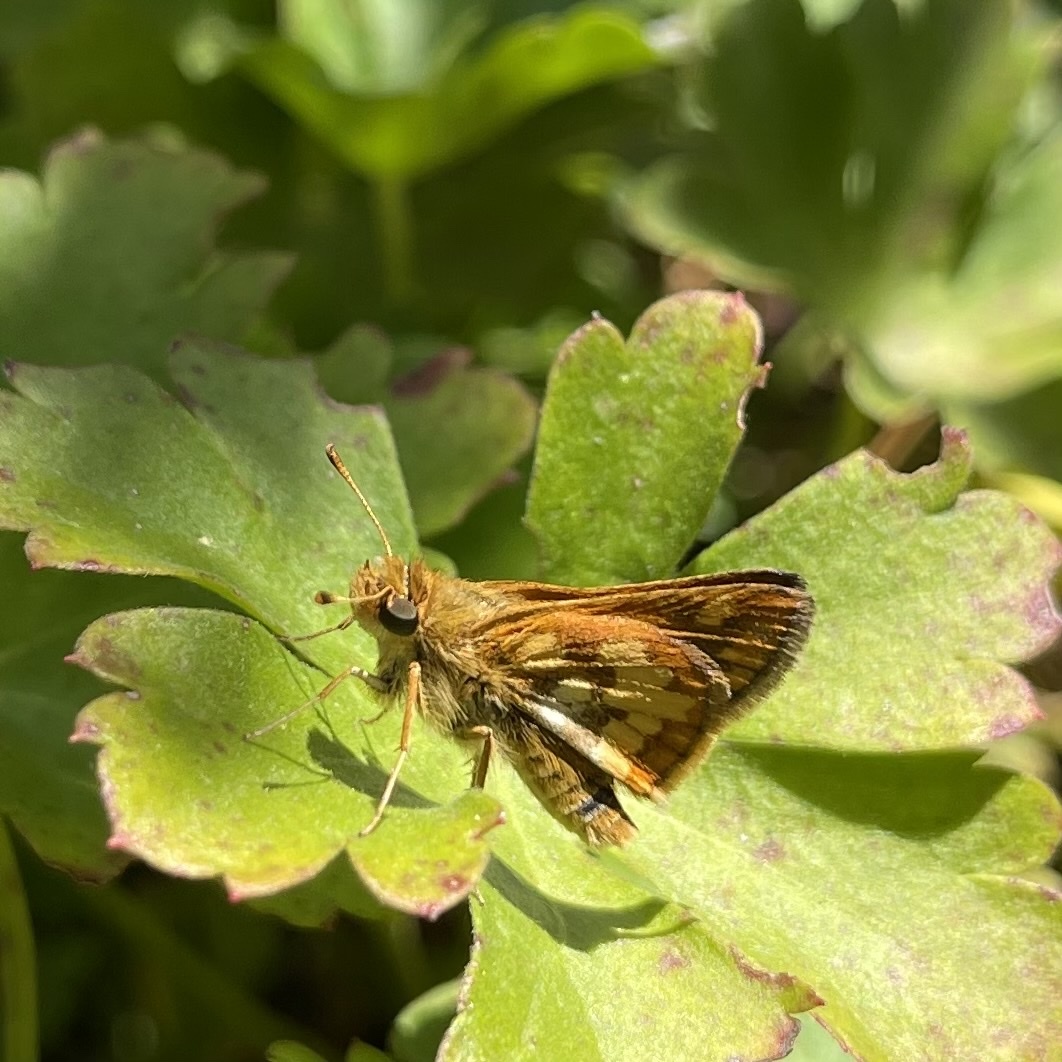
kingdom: Animalia
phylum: Arthropoda
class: Insecta
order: Lepidoptera
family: Hesperiidae
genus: Polites
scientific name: Polites coras
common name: Peck's skipper
